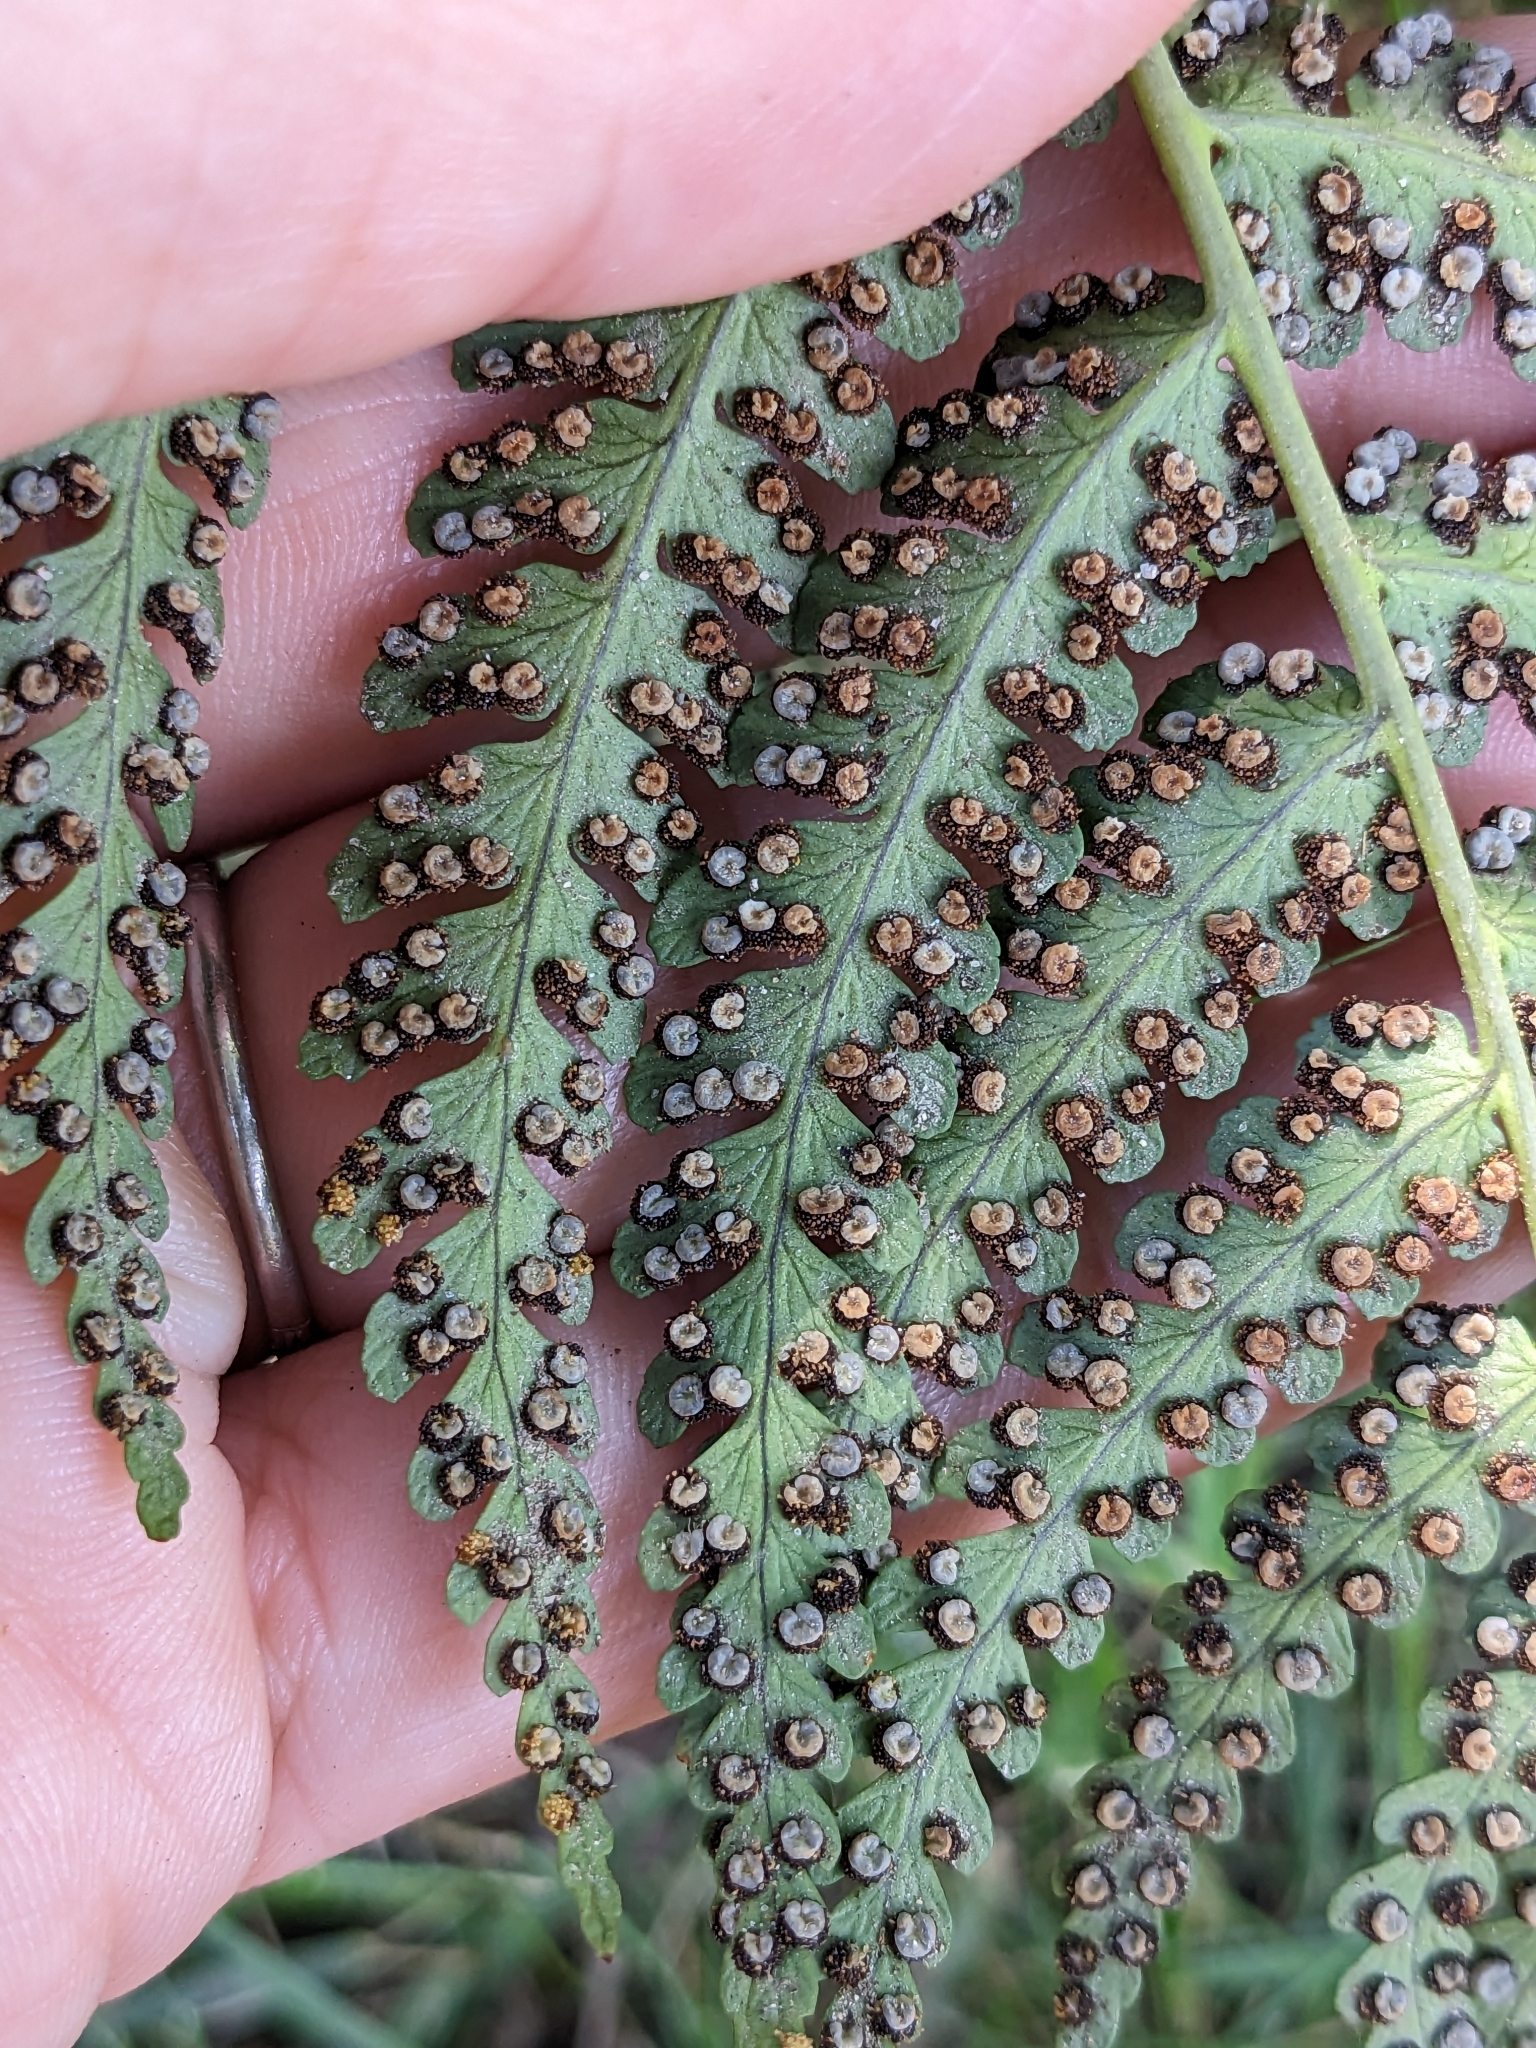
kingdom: Plantae
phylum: Tracheophyta
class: Polypodiopsida
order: Polypodiales
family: Dryopteridaceae
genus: Dryopteris
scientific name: Dryopteris marginalis
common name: Marginal wood fern
